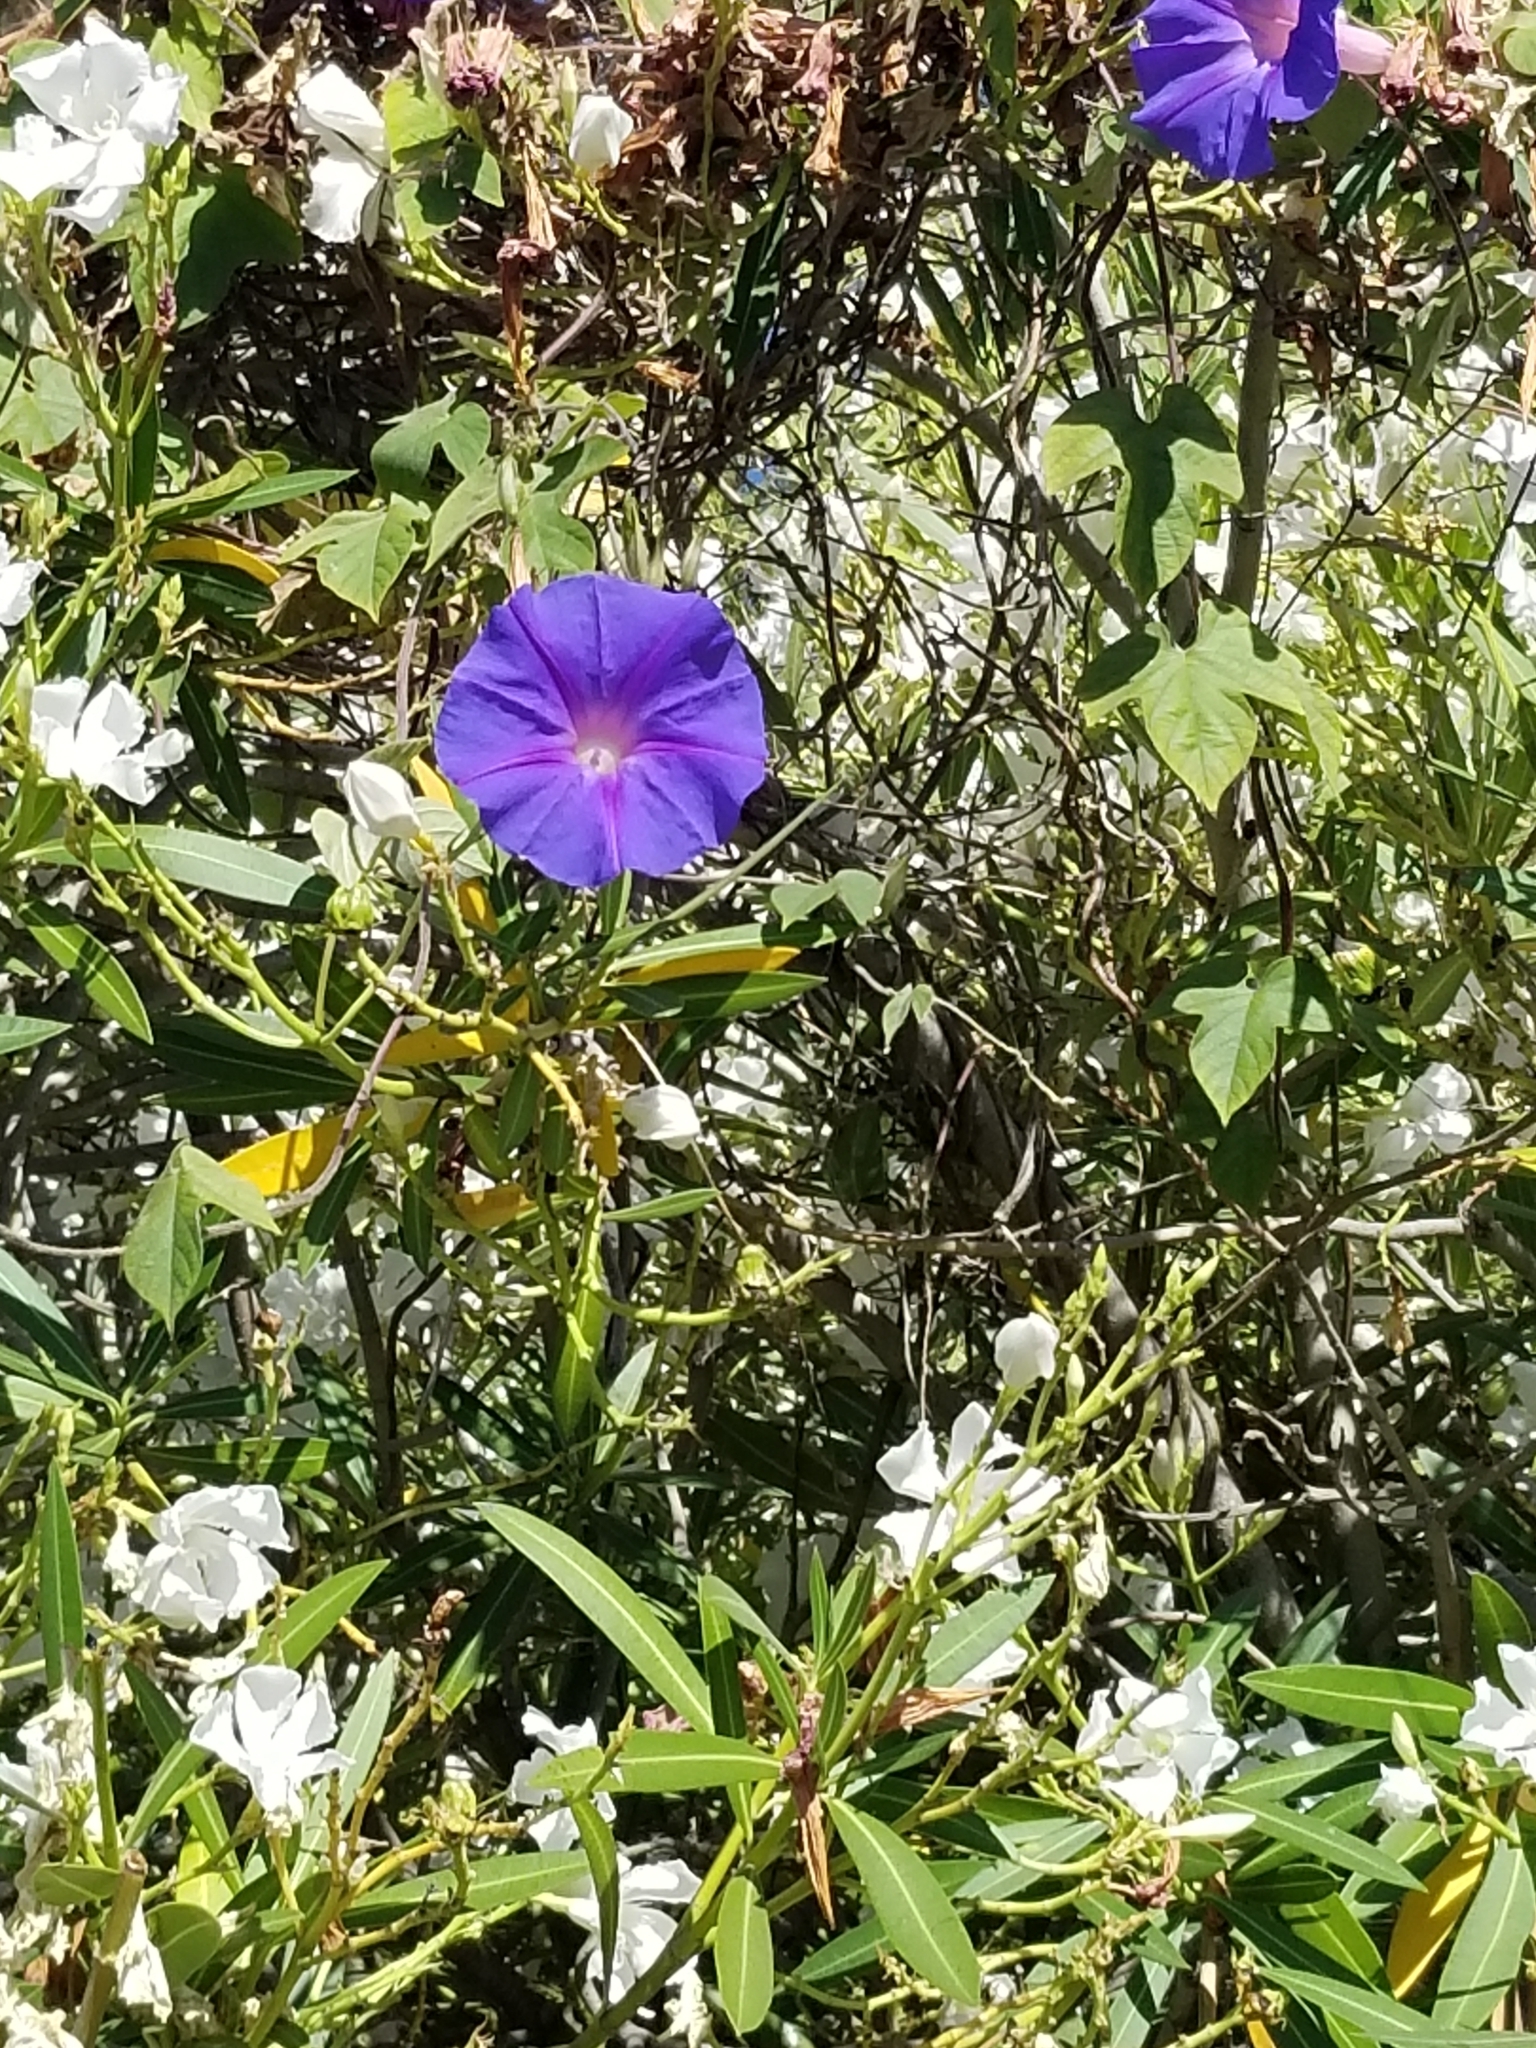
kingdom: Plantae
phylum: Tracheophyta
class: Magnoliopsida
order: Solanales
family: Convolvulaceae
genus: Ipomoea
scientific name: Ipomoea indica
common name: Blue dawnflower
